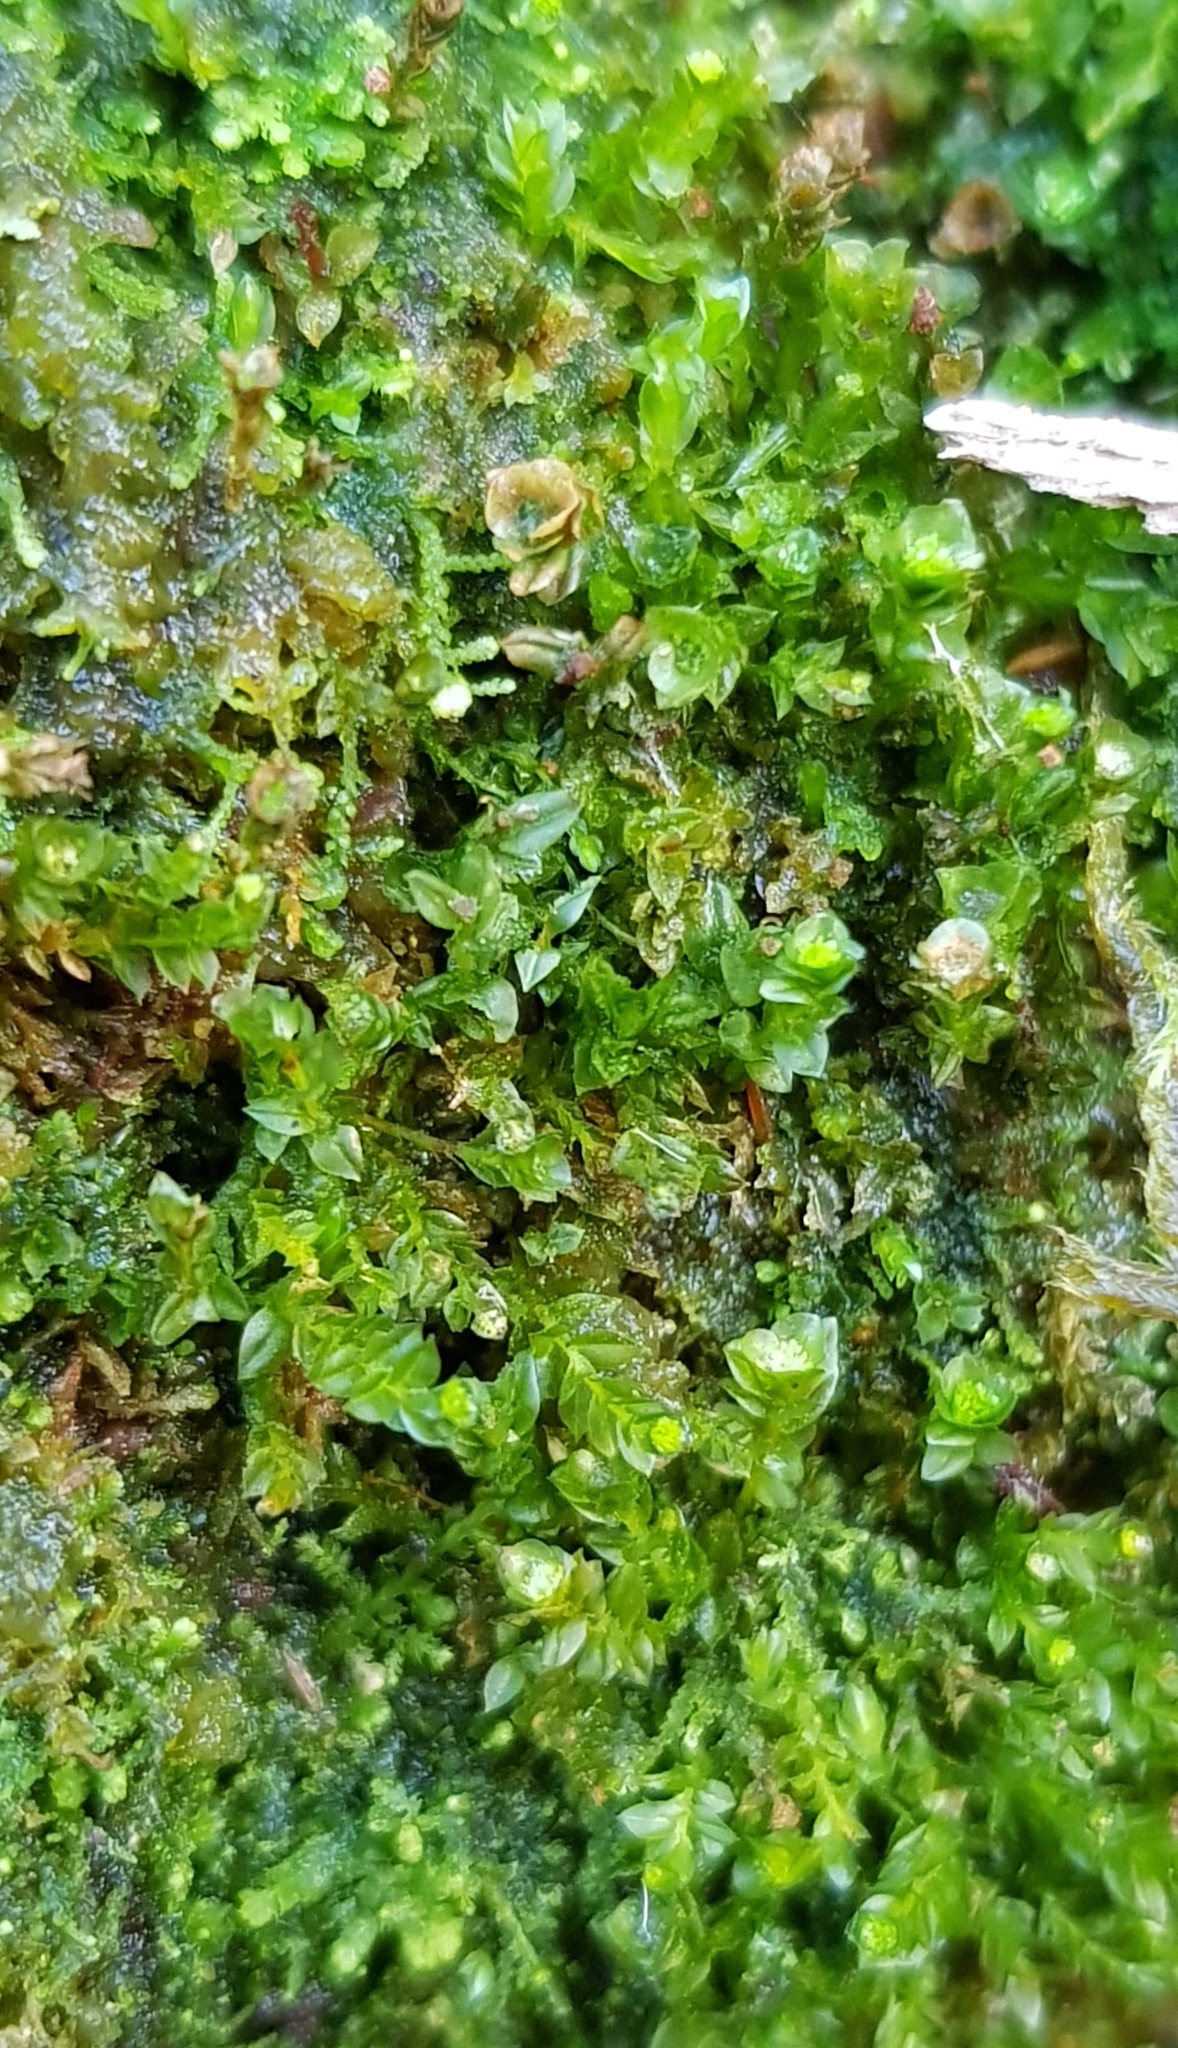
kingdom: Plantae
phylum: Bryophyta
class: Polytrichopsida
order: Tetraphidales
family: Tetraphidaceae
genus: Tetraphis
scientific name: Tetraphis pellucida
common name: Common four-toothed moss
